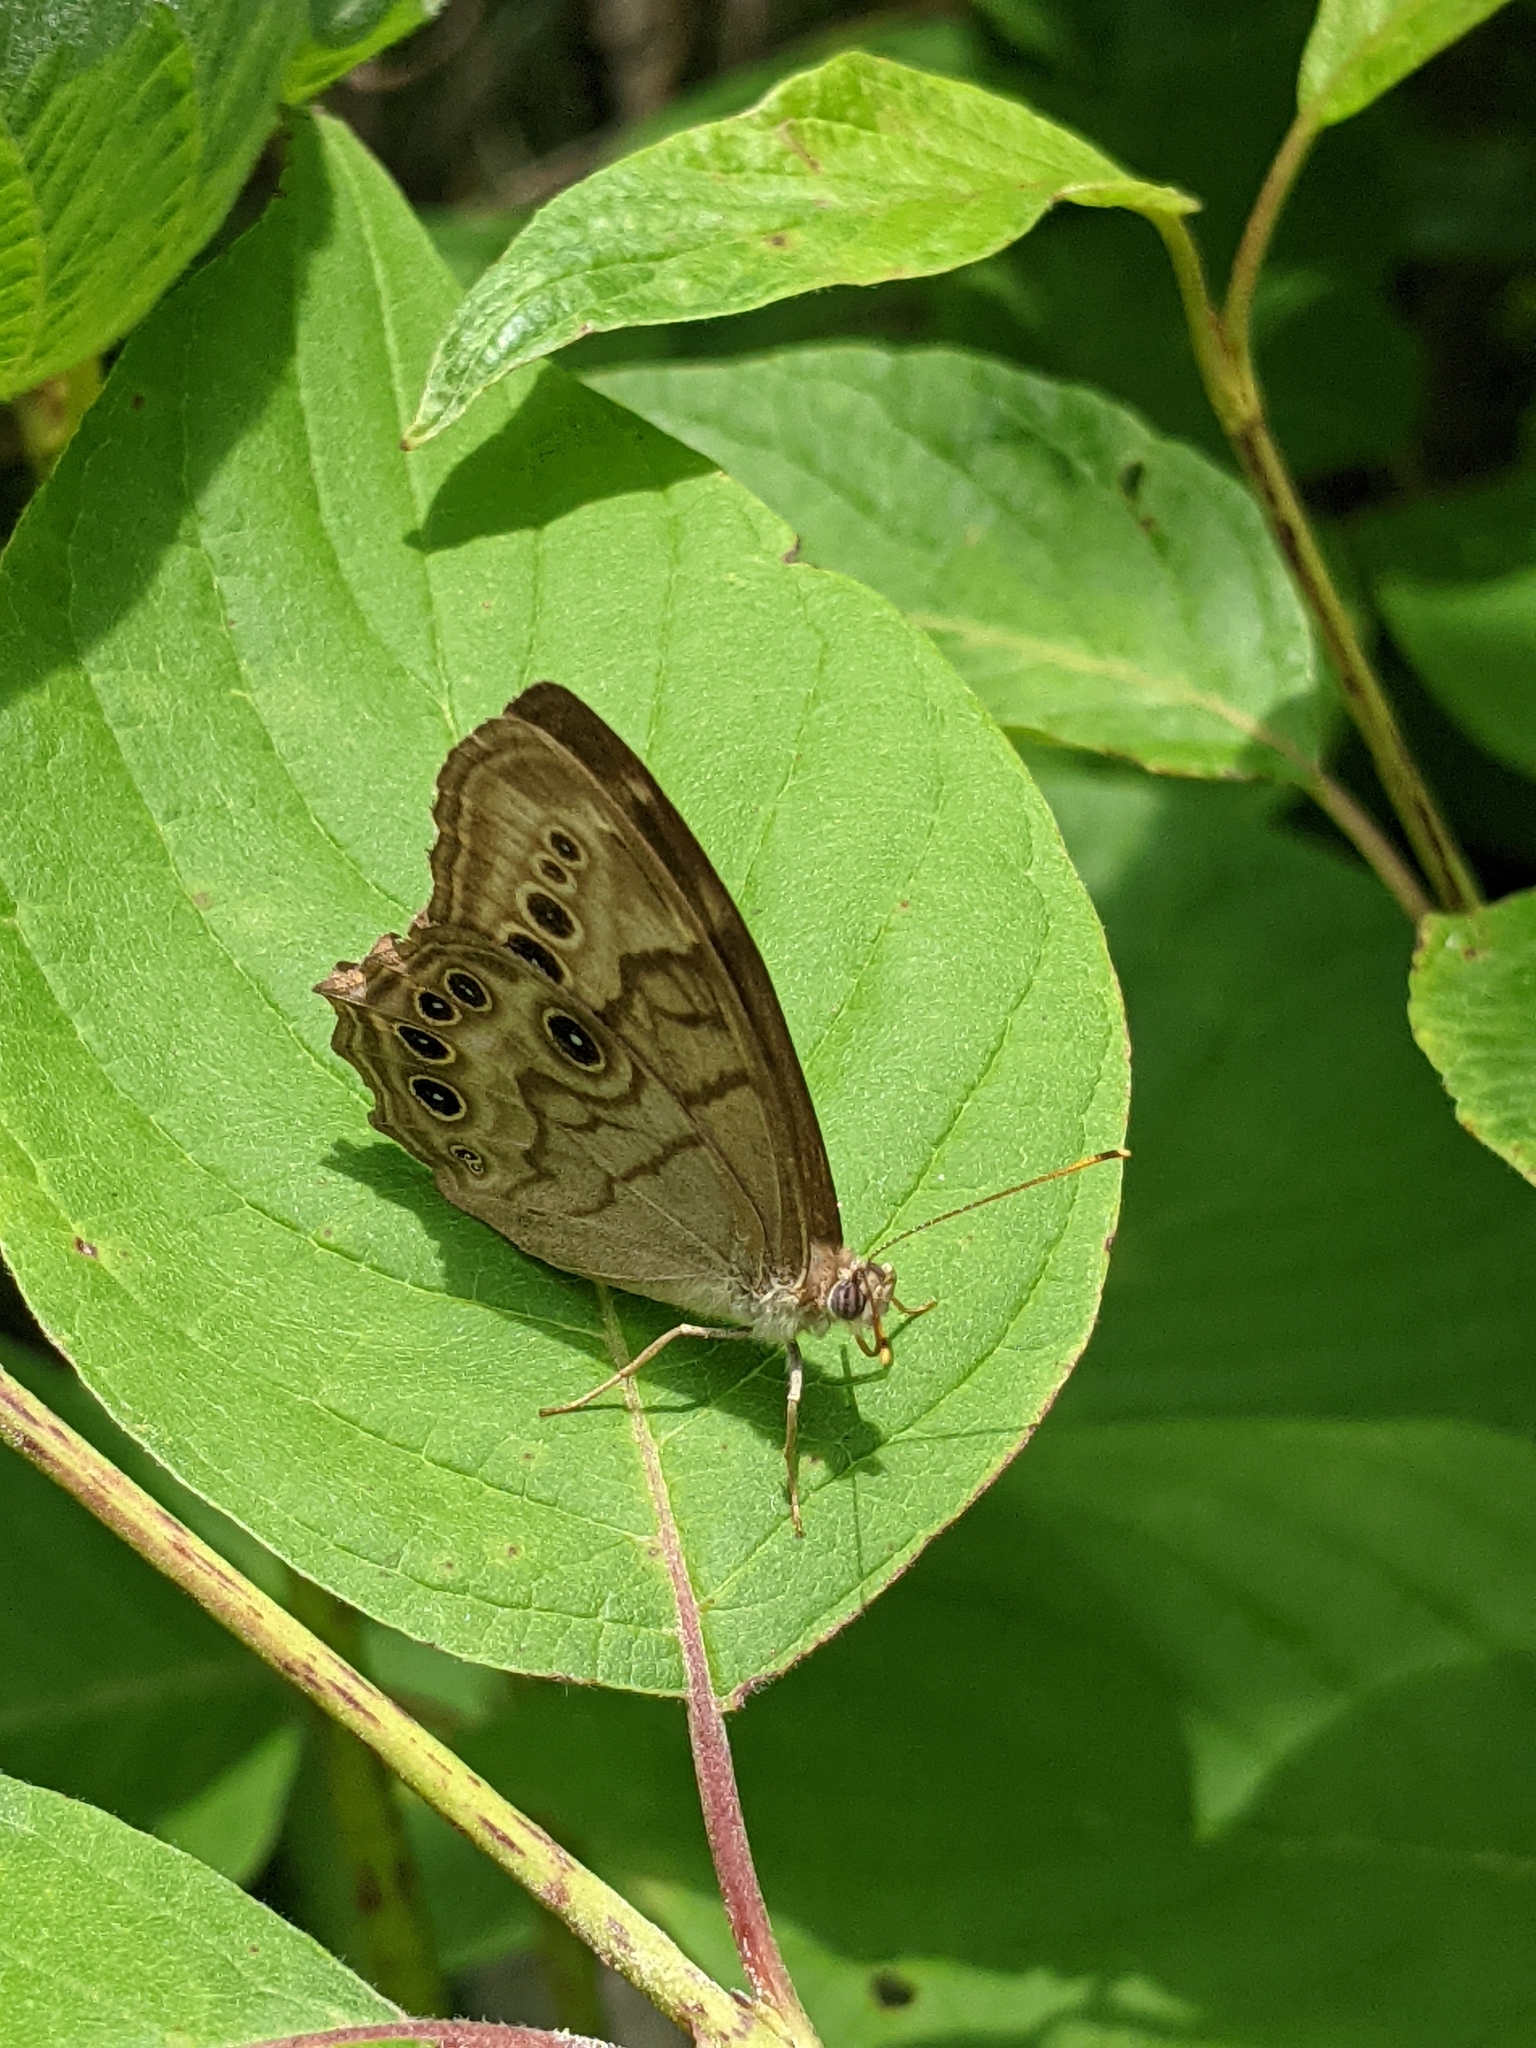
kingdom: Animalia
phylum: Arthropoda
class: Insecta
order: Lepidoptera
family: Nymphalidae
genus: Lethe
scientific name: Lethe anthedon
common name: Northern pearly-eye
